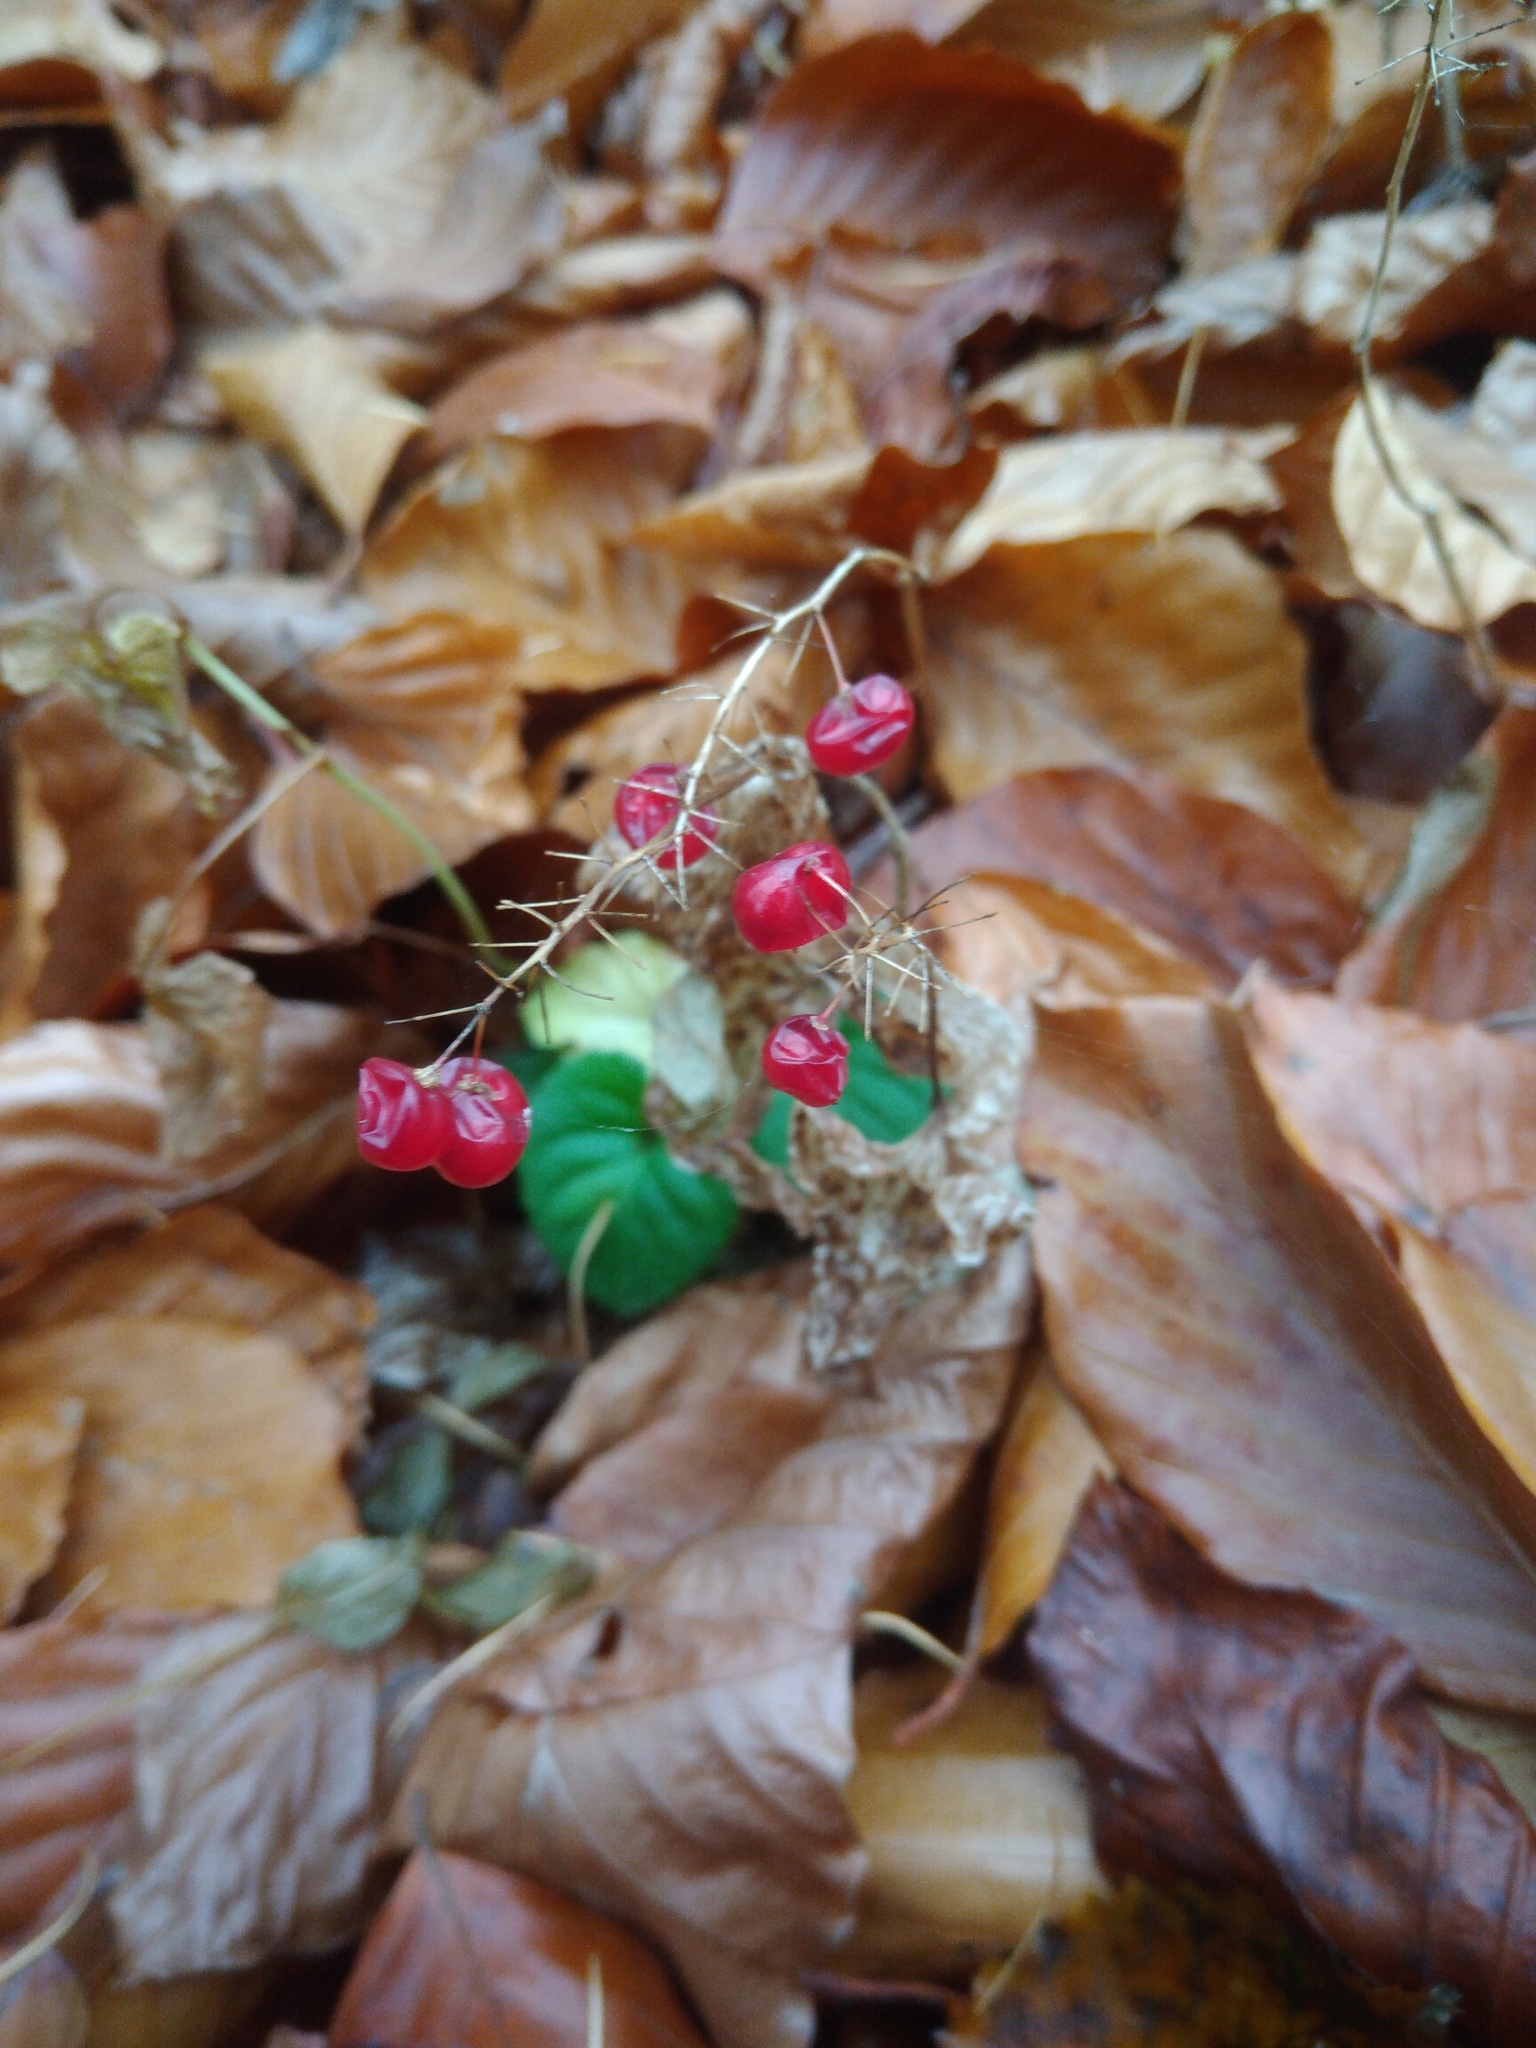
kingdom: Plantae
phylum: Tracheophyta
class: Liliopsida
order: Asparagales
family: Asparagaceae
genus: Maianthemum
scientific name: Maianthemum bifolium
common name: May lily
